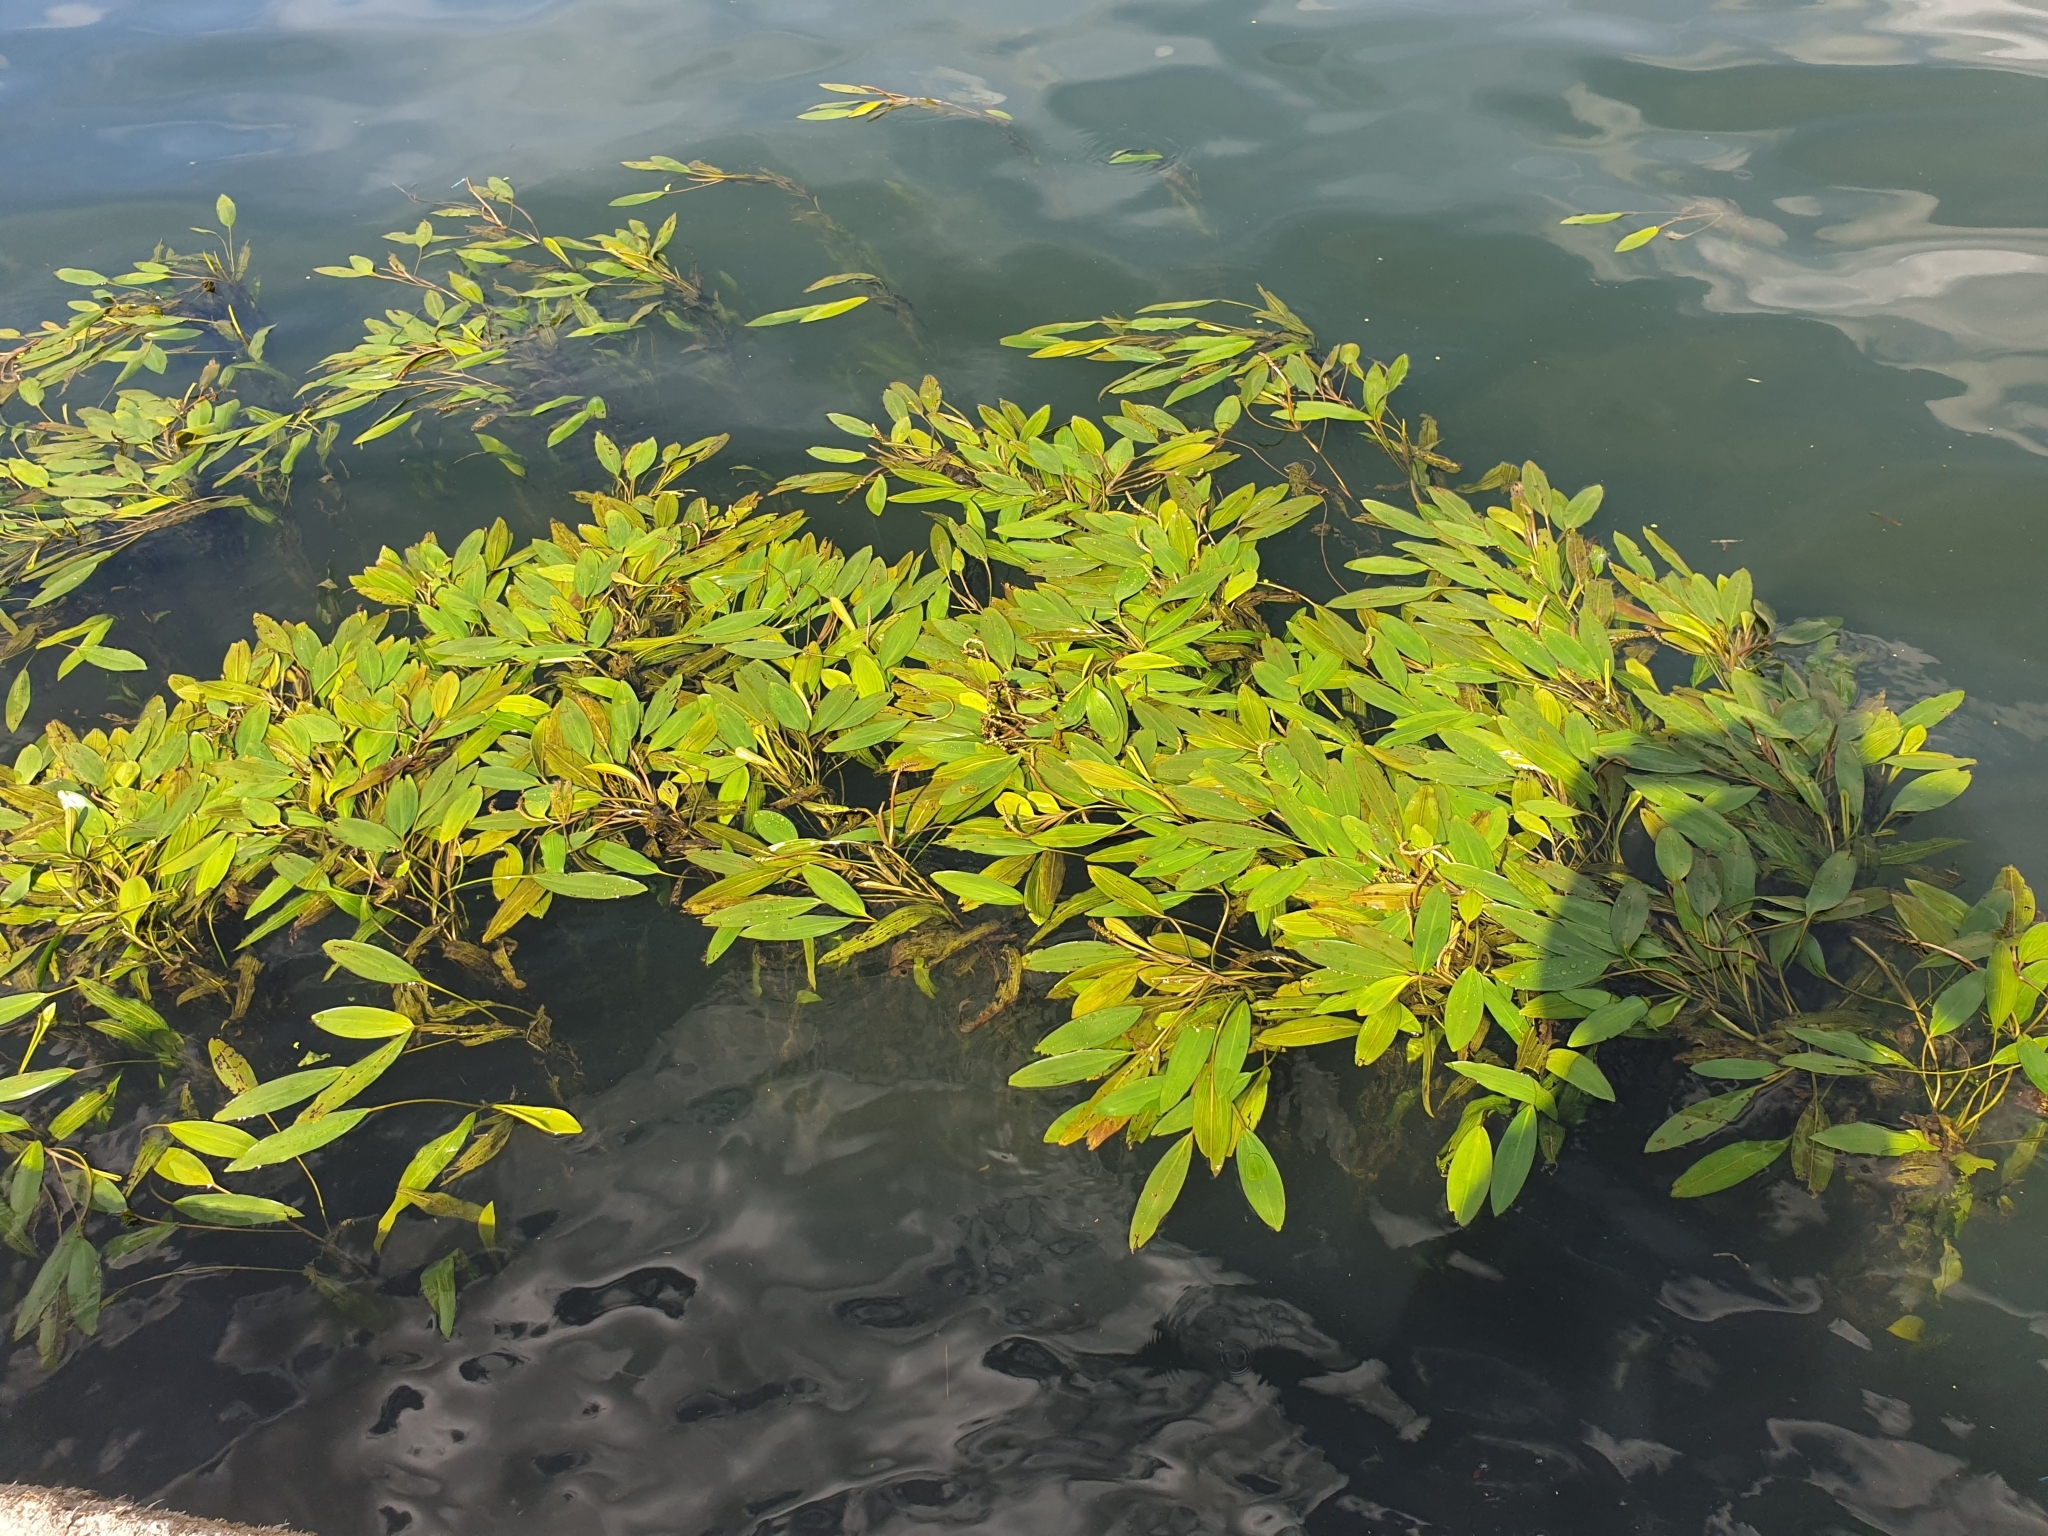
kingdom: Plantae
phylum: Tracheophyta
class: Liliopsida
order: Alismatales
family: Potamogetonaceae
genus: Potamogeton
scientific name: Potamogeton nodosus
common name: Loddon pondweed
